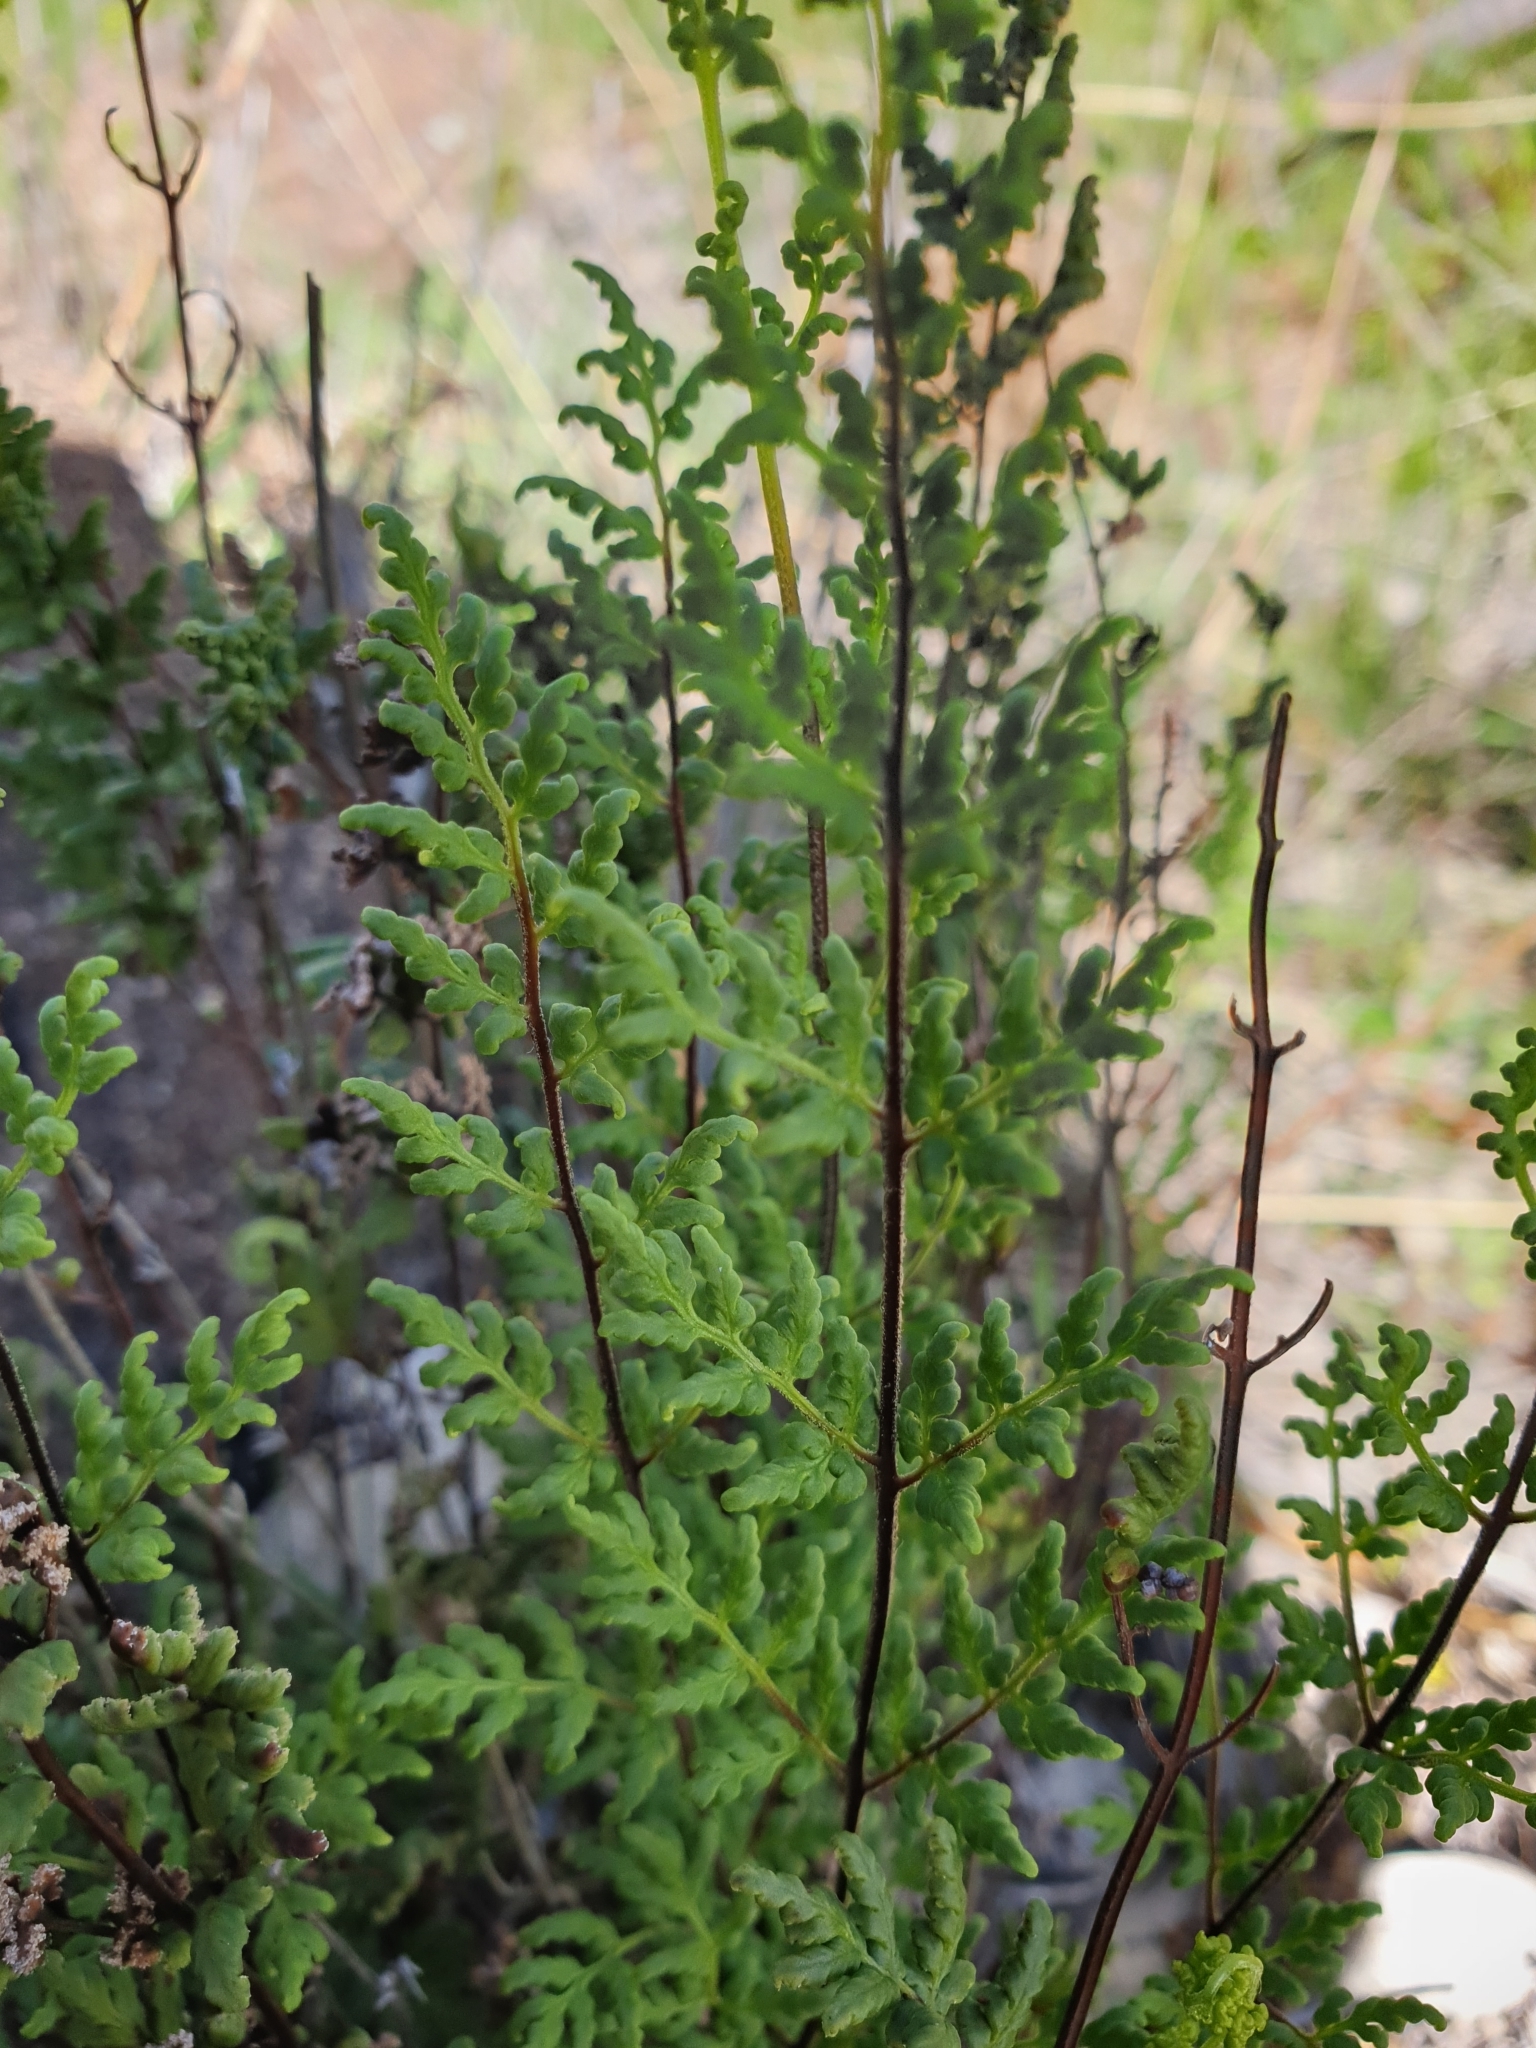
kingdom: Plantae
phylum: Tracheophyta
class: Polypodiopsida
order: Polypodiales
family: Pteridaceae
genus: Cheilanthes
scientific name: Cheilanthes sieberi
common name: Mulga fern
